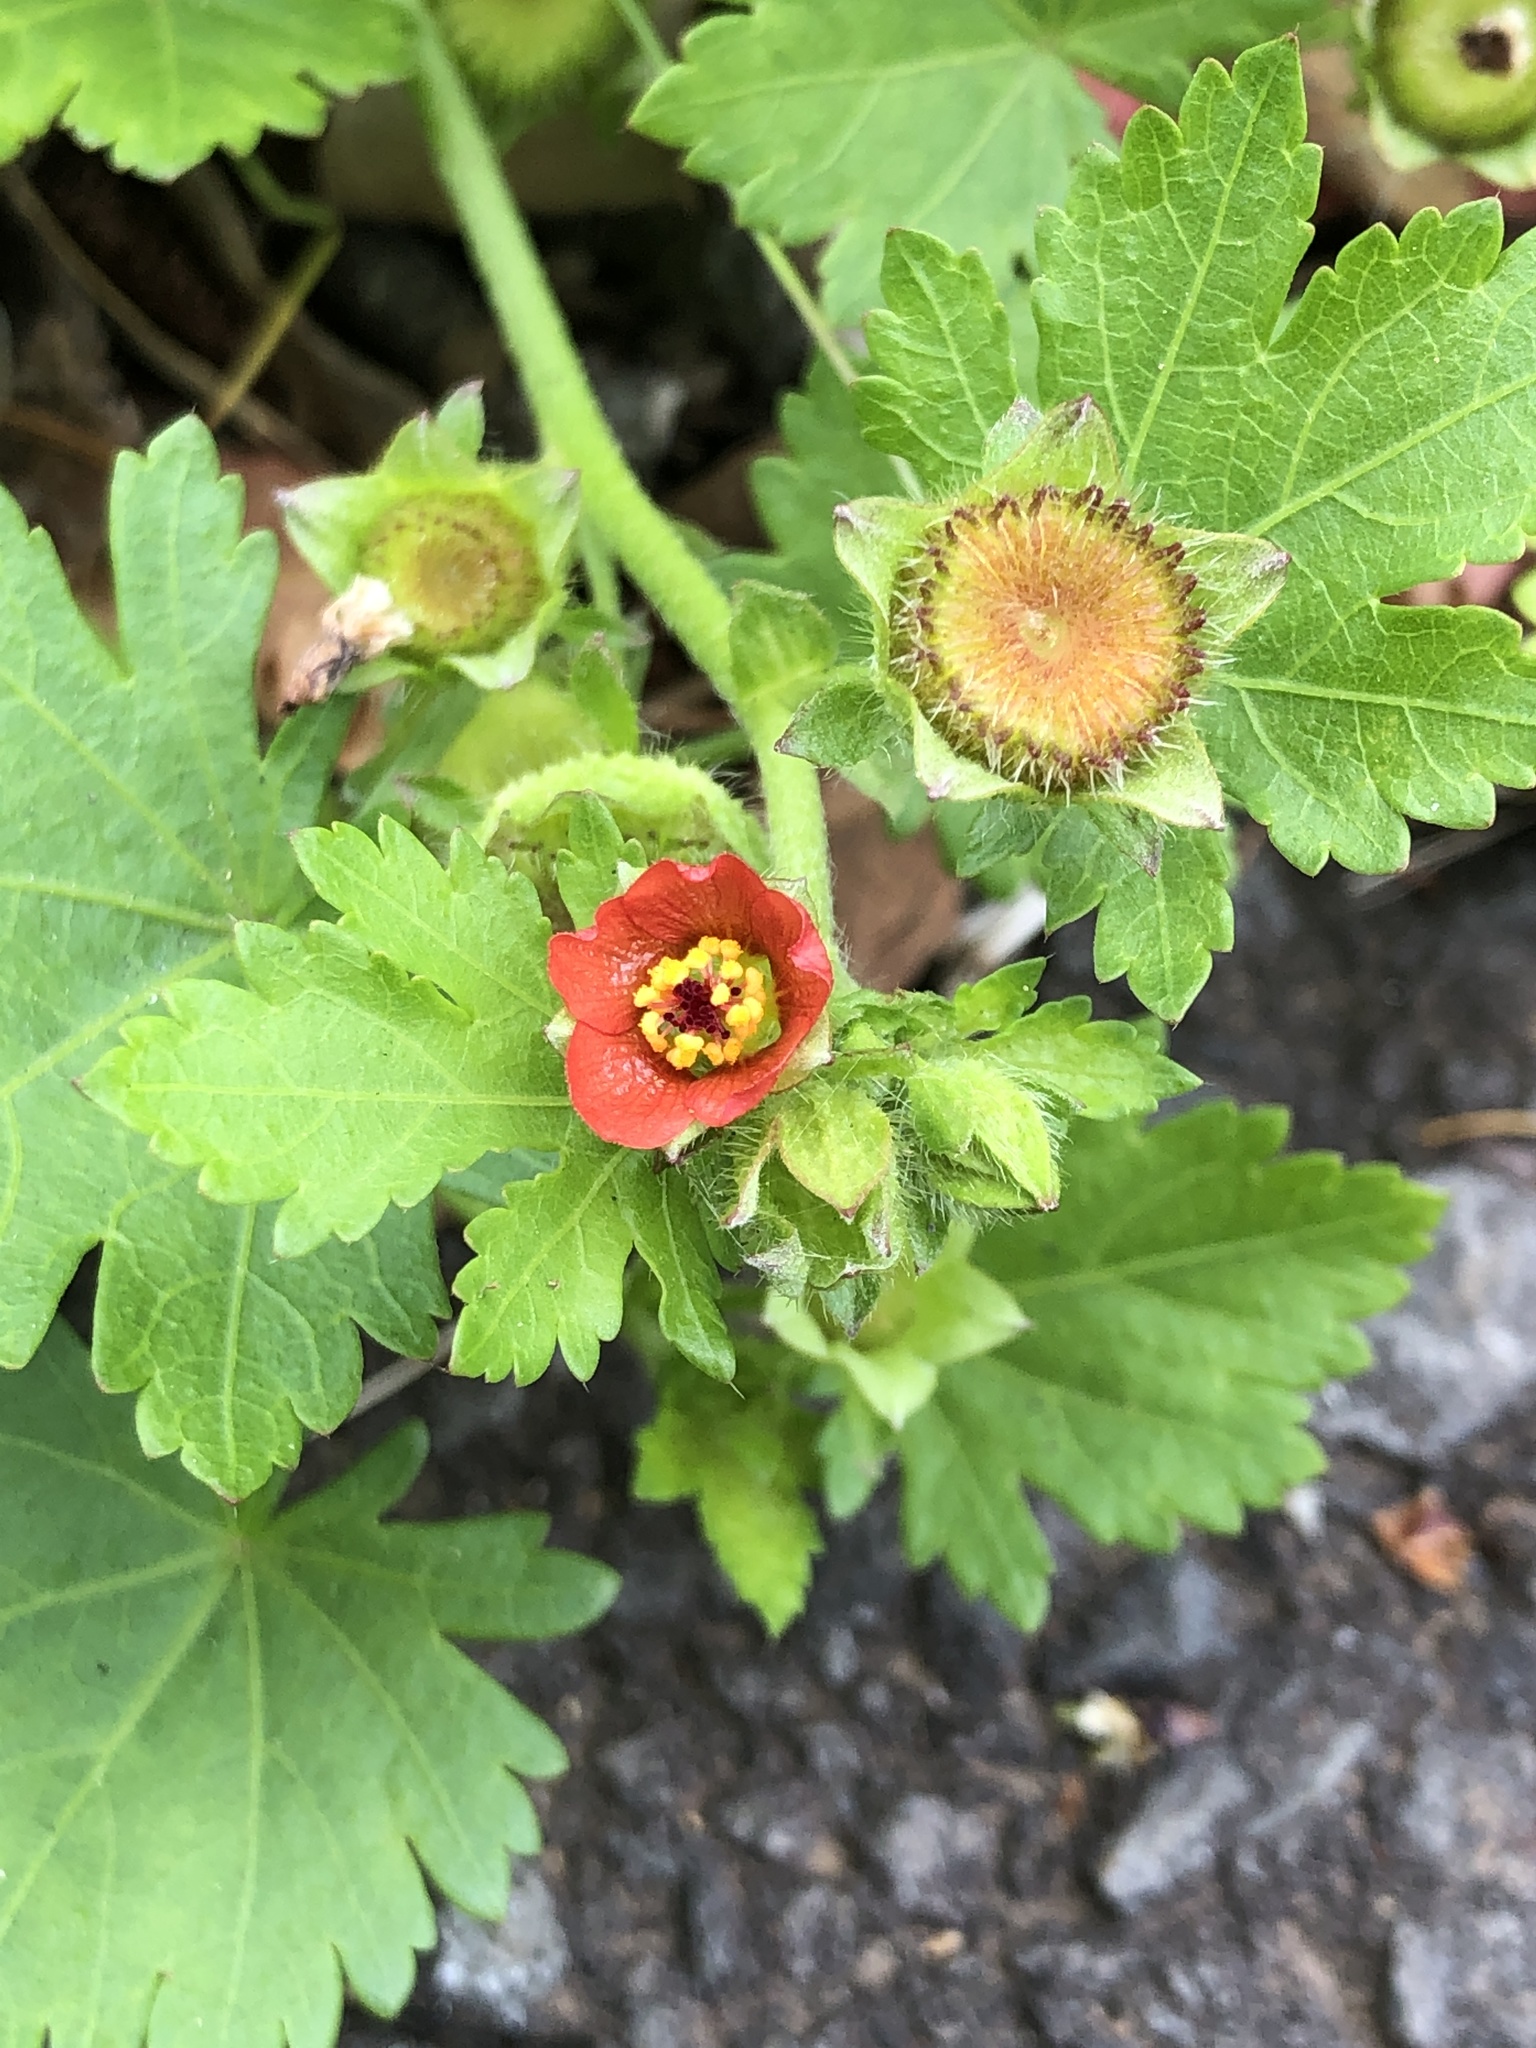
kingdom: Plantae
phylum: Tracheophyta
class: Magnoliopsida
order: Malvales
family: Malvaceae
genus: Modiola
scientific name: Modiola caroliniana
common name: Carolina bristlemallow
